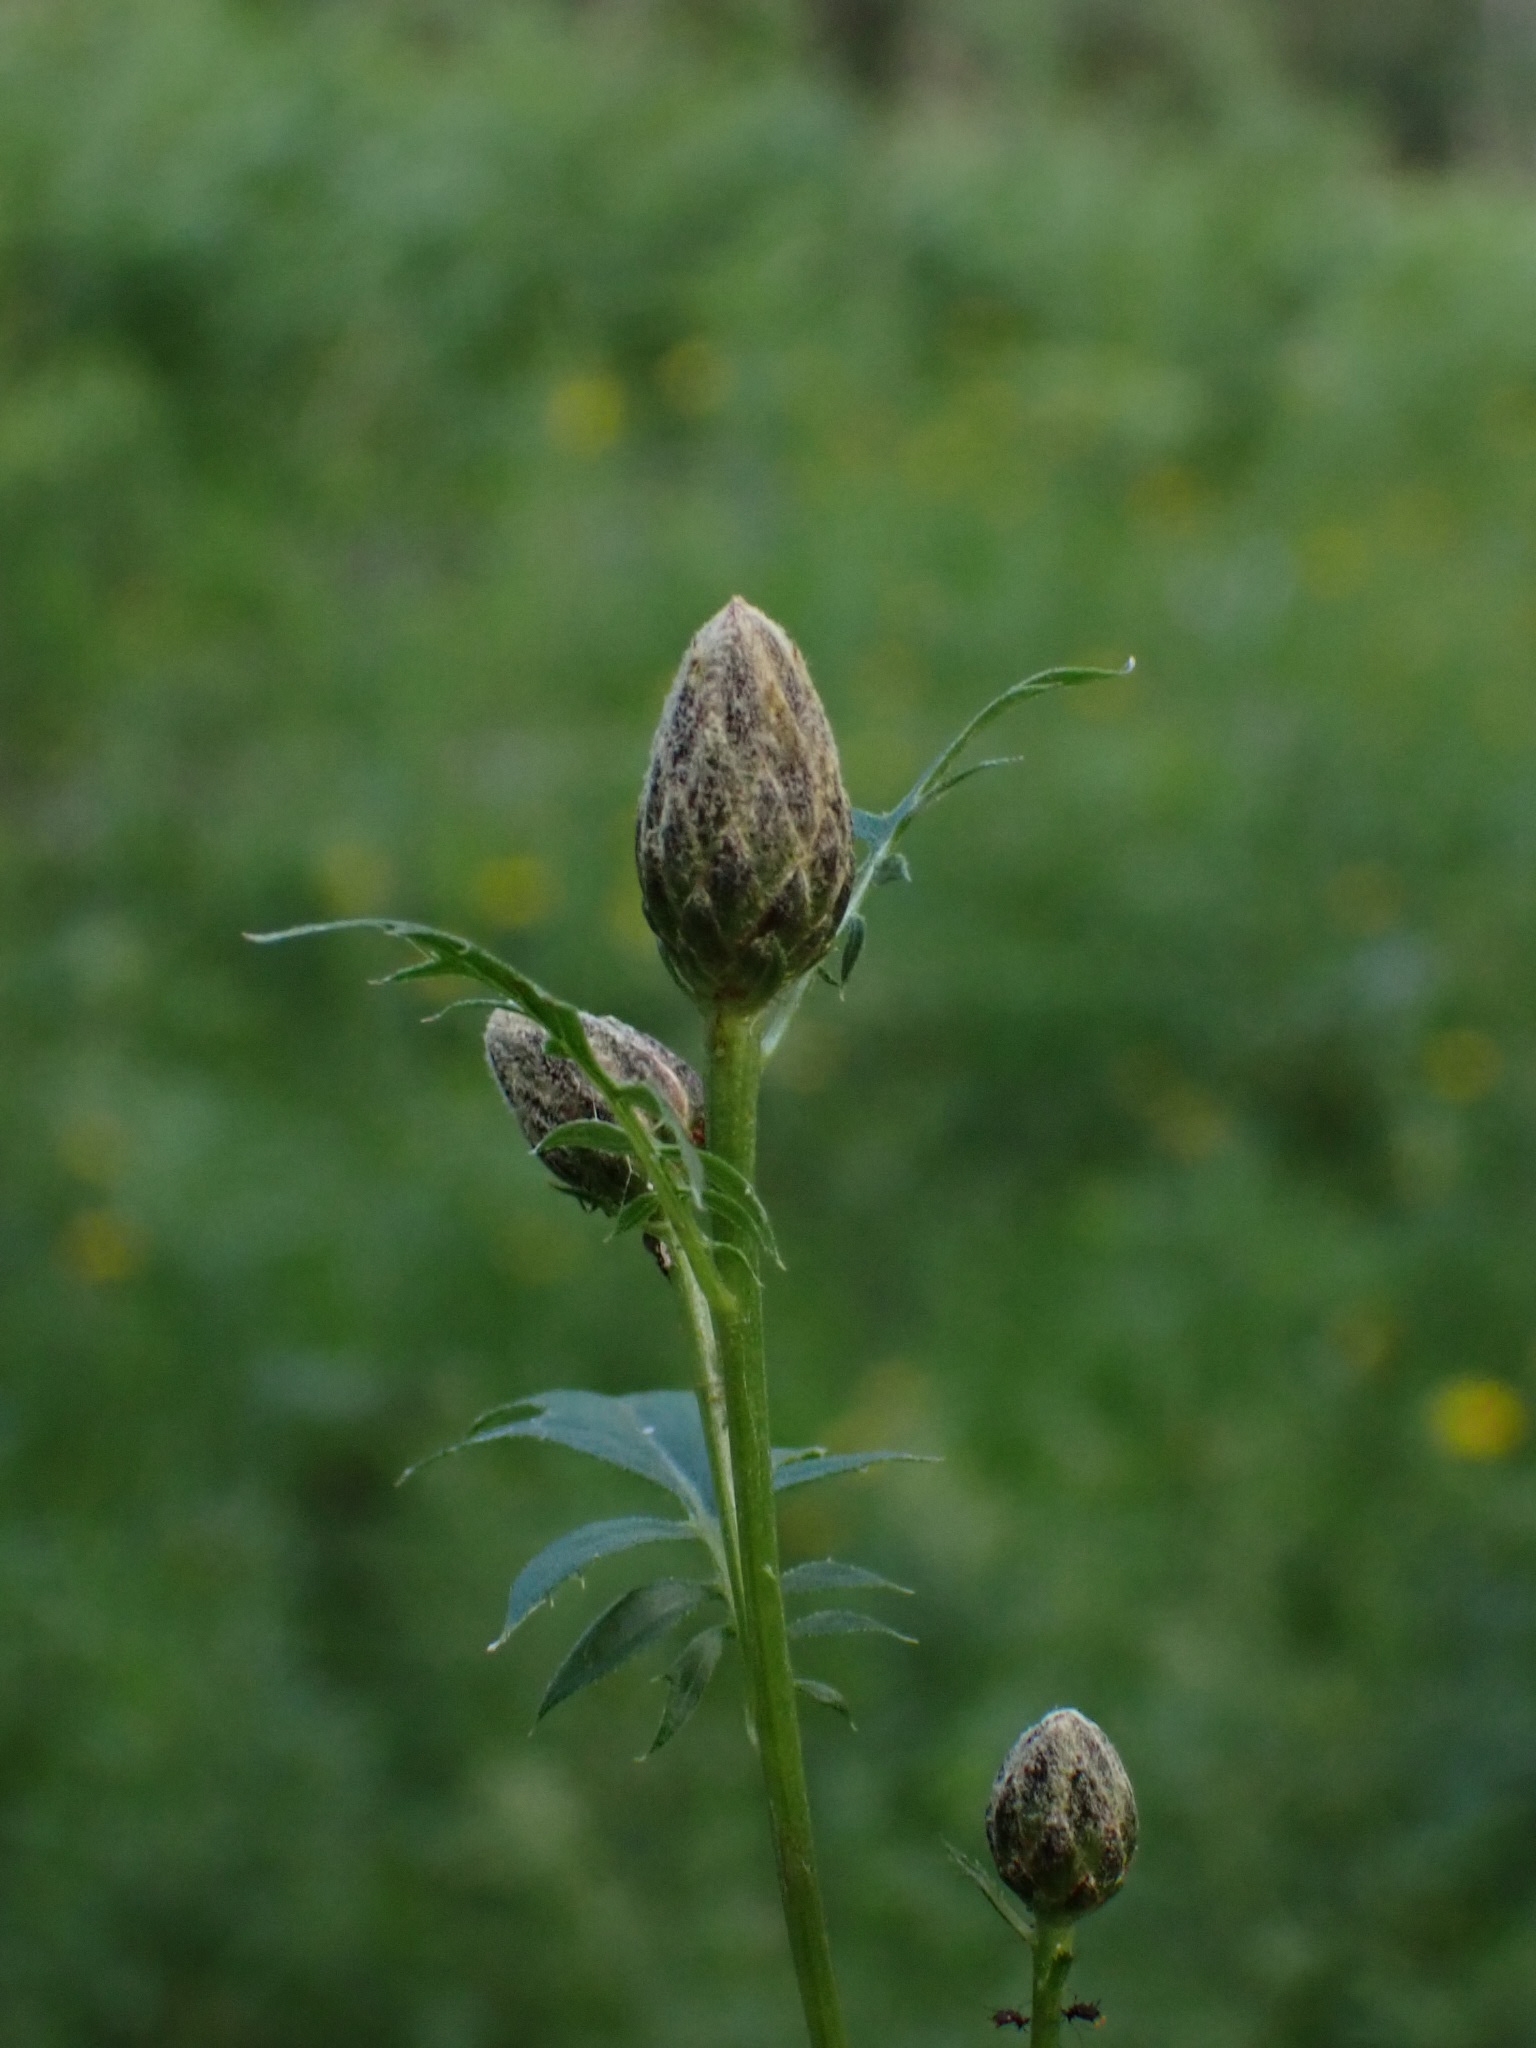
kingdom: Plantae
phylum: Tracheophyta
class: Magnoliopsida
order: Asterales
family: Asteraceae
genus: Serratula
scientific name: Serratula coronata
